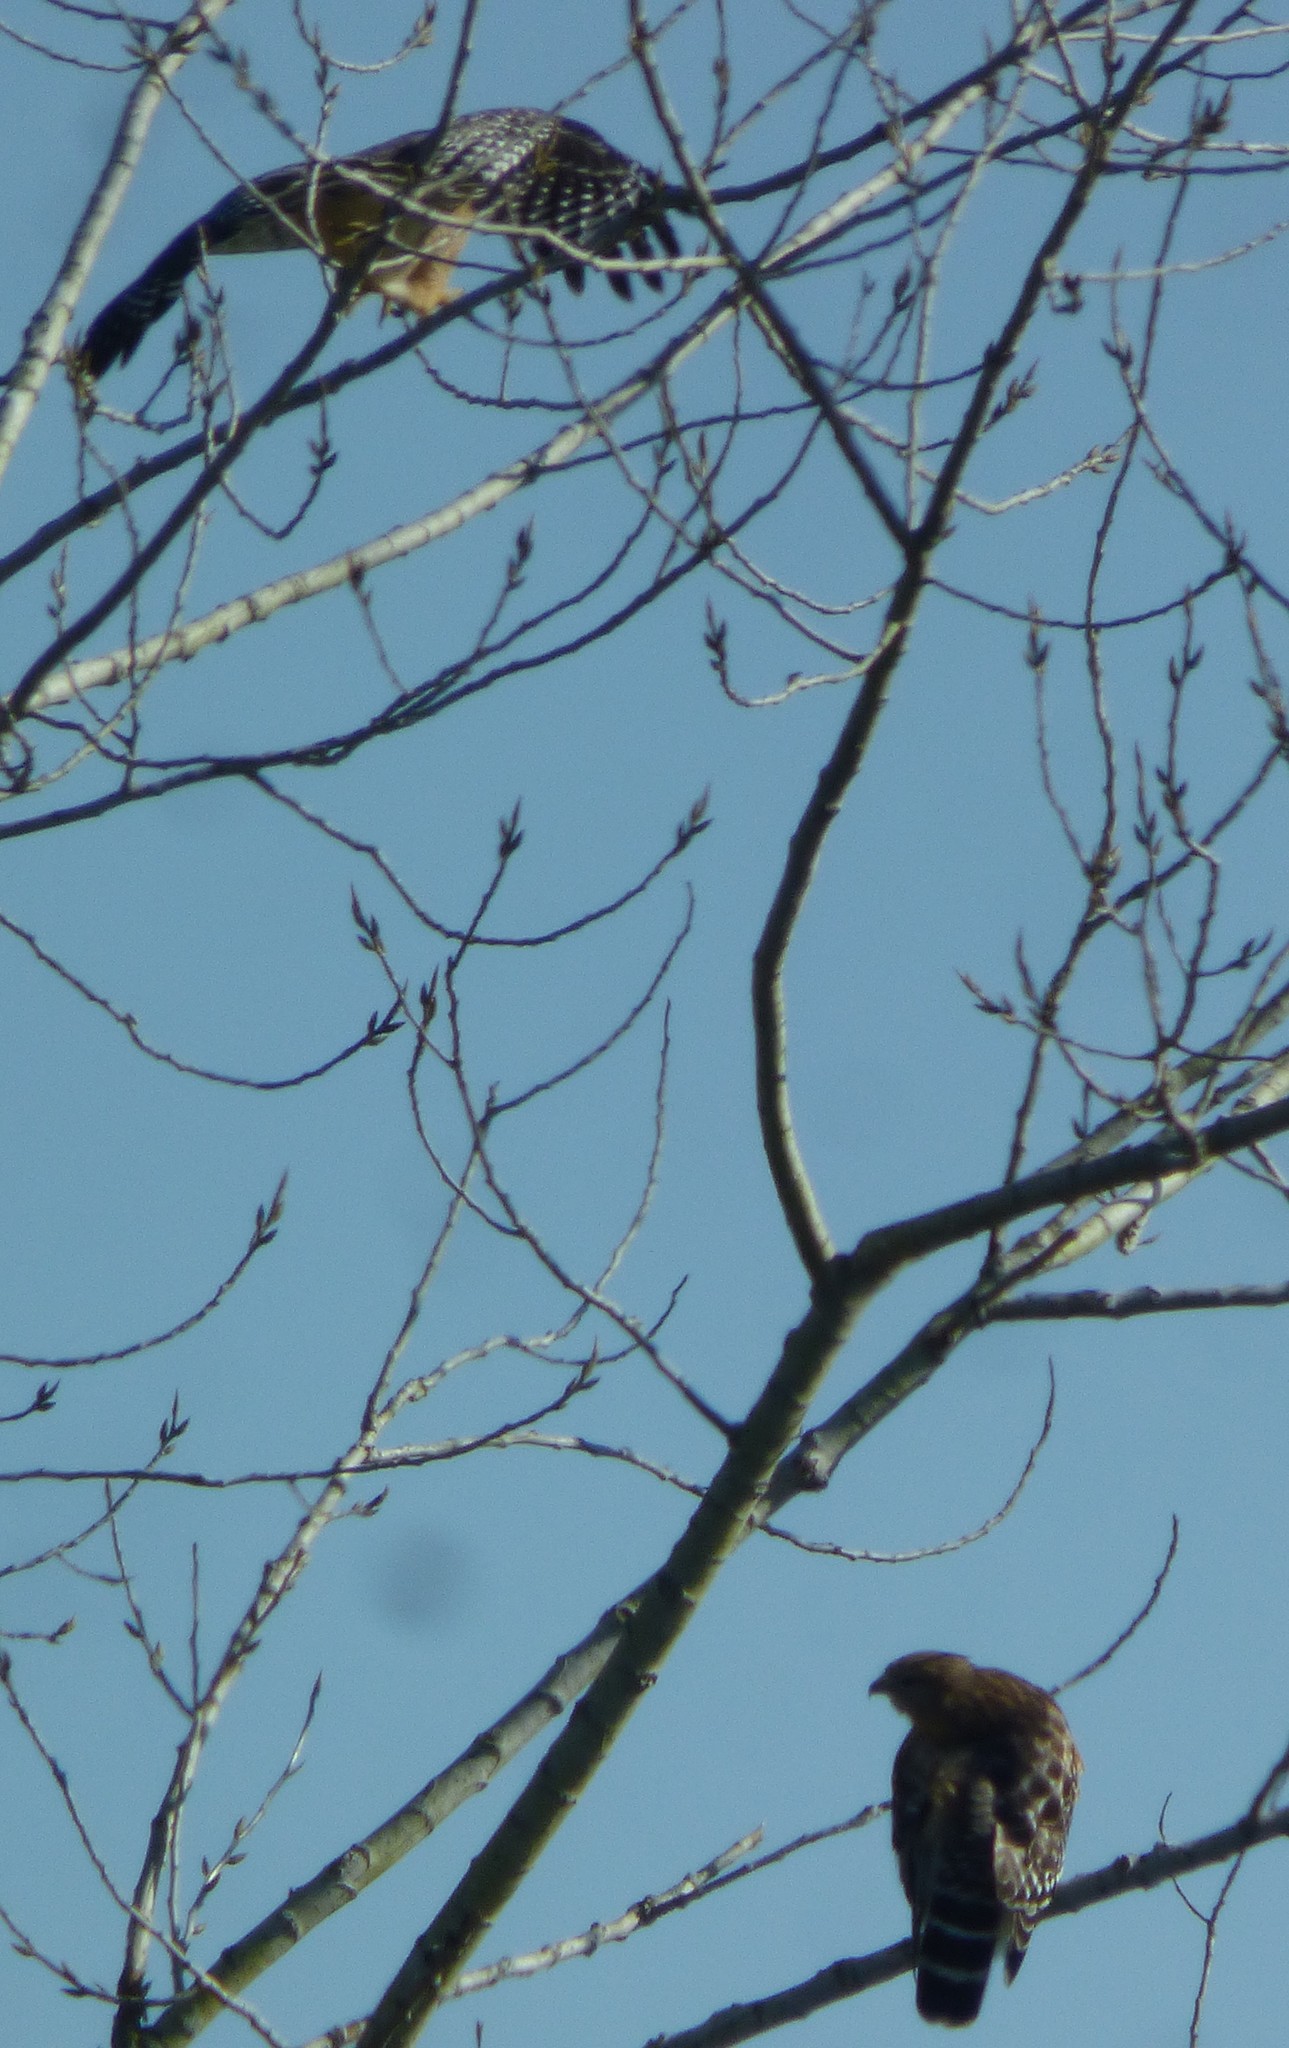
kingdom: Animalia
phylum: Chordata
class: Aves
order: Accipitriformes
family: Accipitridae
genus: Buteo
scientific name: Buteo lineatus
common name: Red-shouldered hawk
